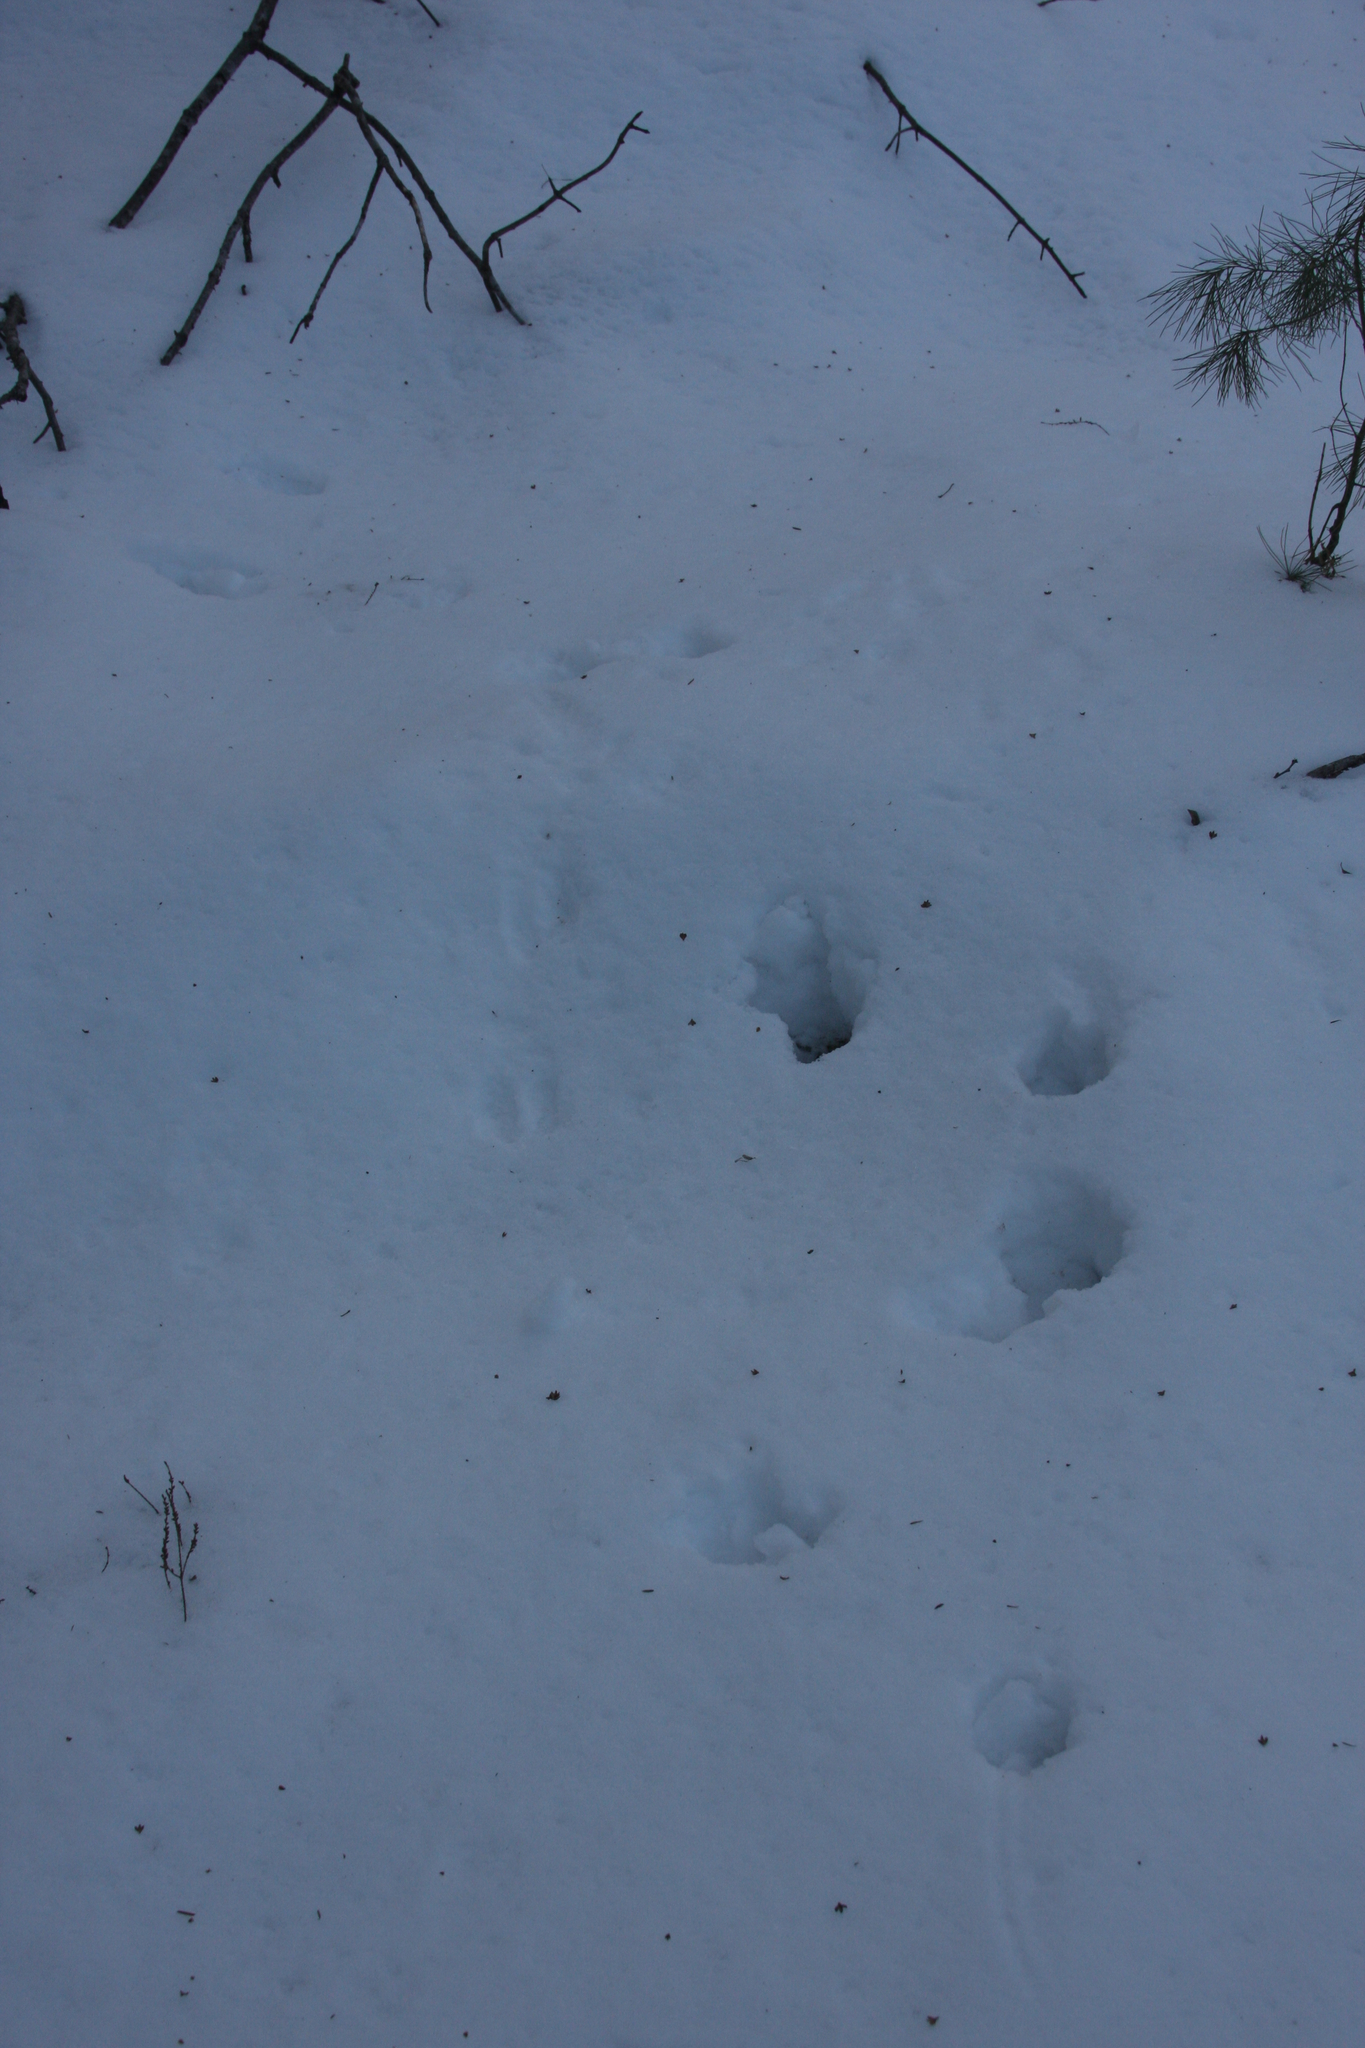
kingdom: Animalia
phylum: Chordata
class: Mammalia
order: Artiodactyla
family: Cervidae
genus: Odocoileus
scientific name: Odocoileus virginianus
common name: White-tailed deer
